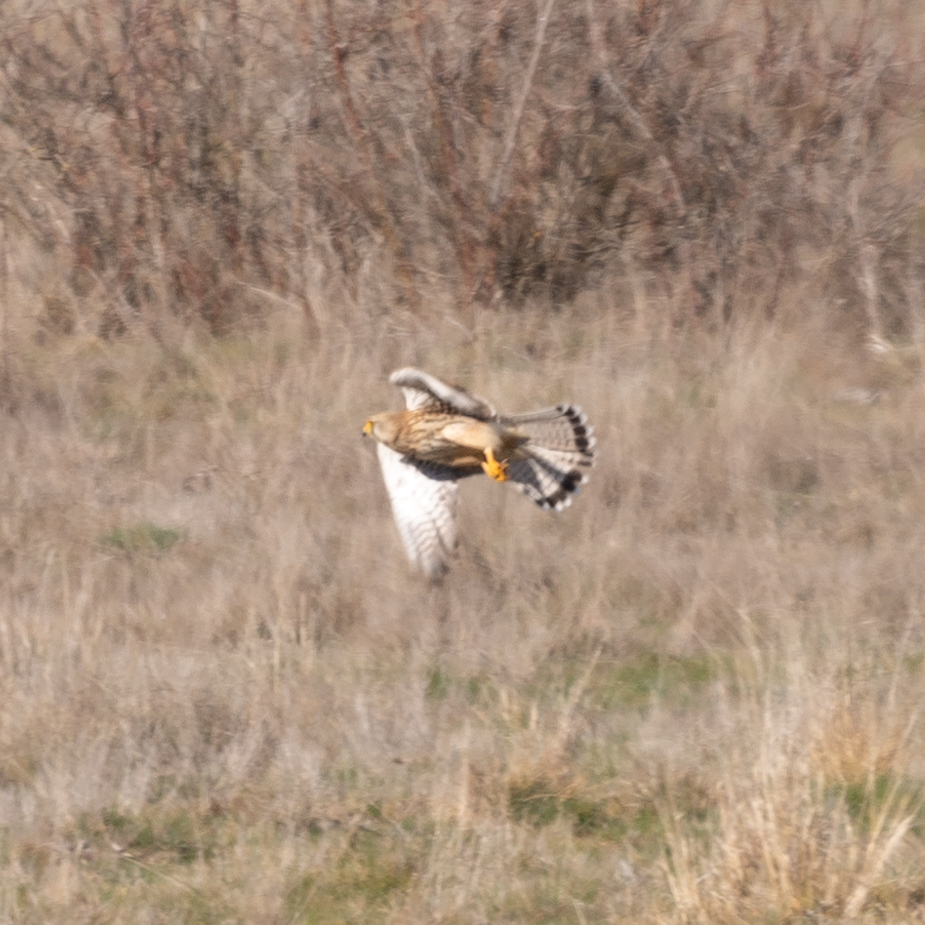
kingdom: Animalia
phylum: Chordata
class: Aves
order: Falconiformes
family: Falconidae
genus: Falco
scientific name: Falco tinnunculus
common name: Common kestrel
